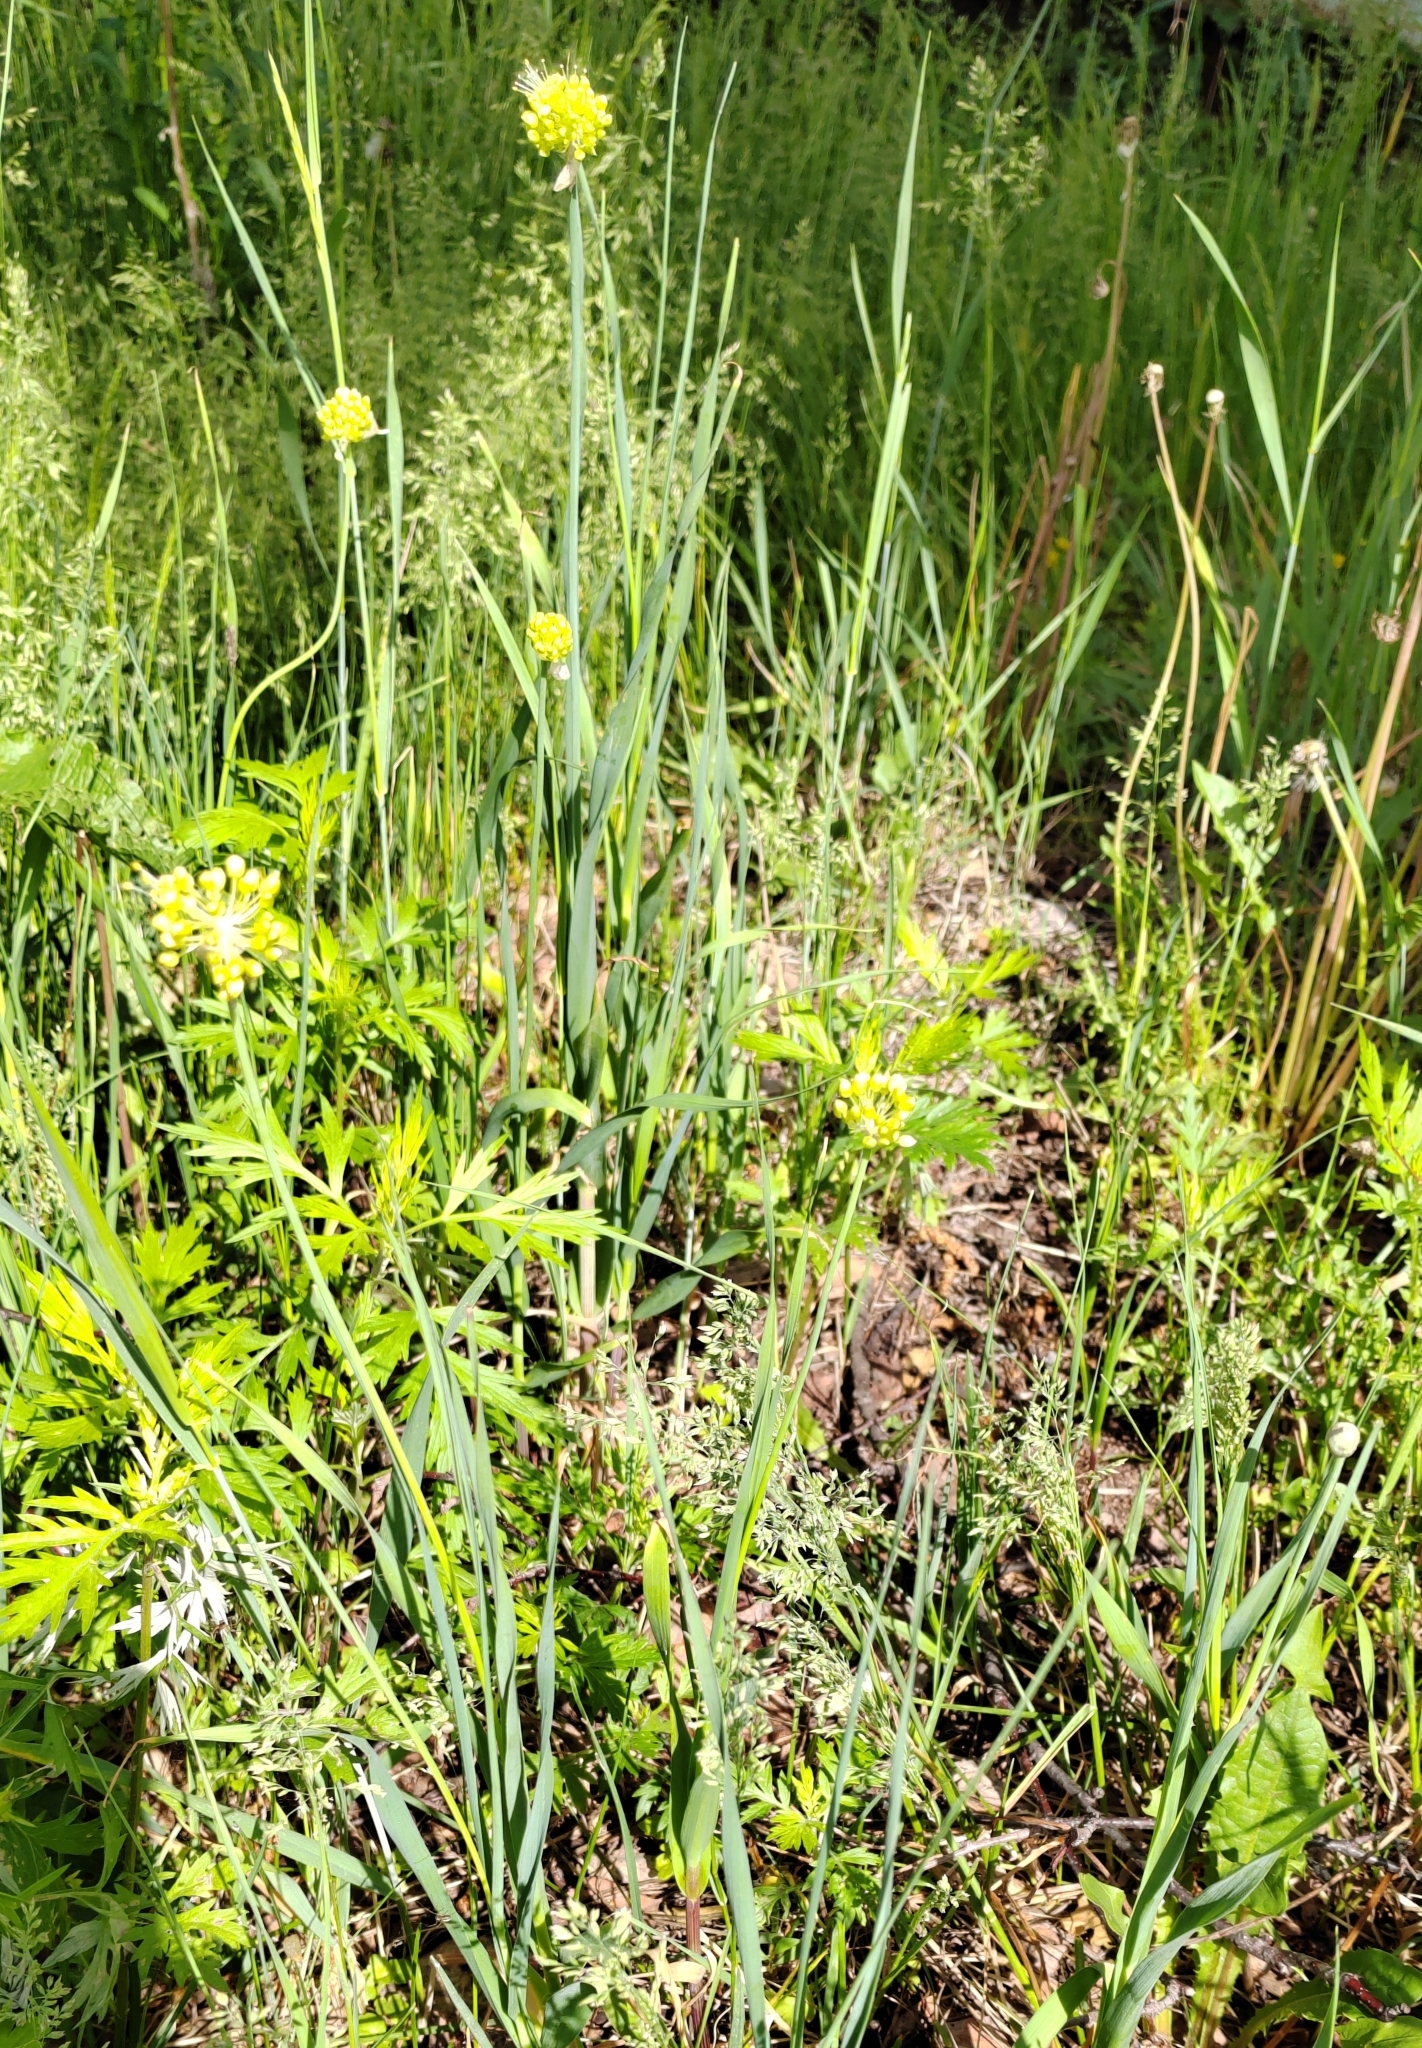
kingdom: Plantae
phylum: Tracheophyta
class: Liliopsida
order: Asparagales
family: Amaryllidaceae
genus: Allium
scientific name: Allium obliquum
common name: Oblique onion
